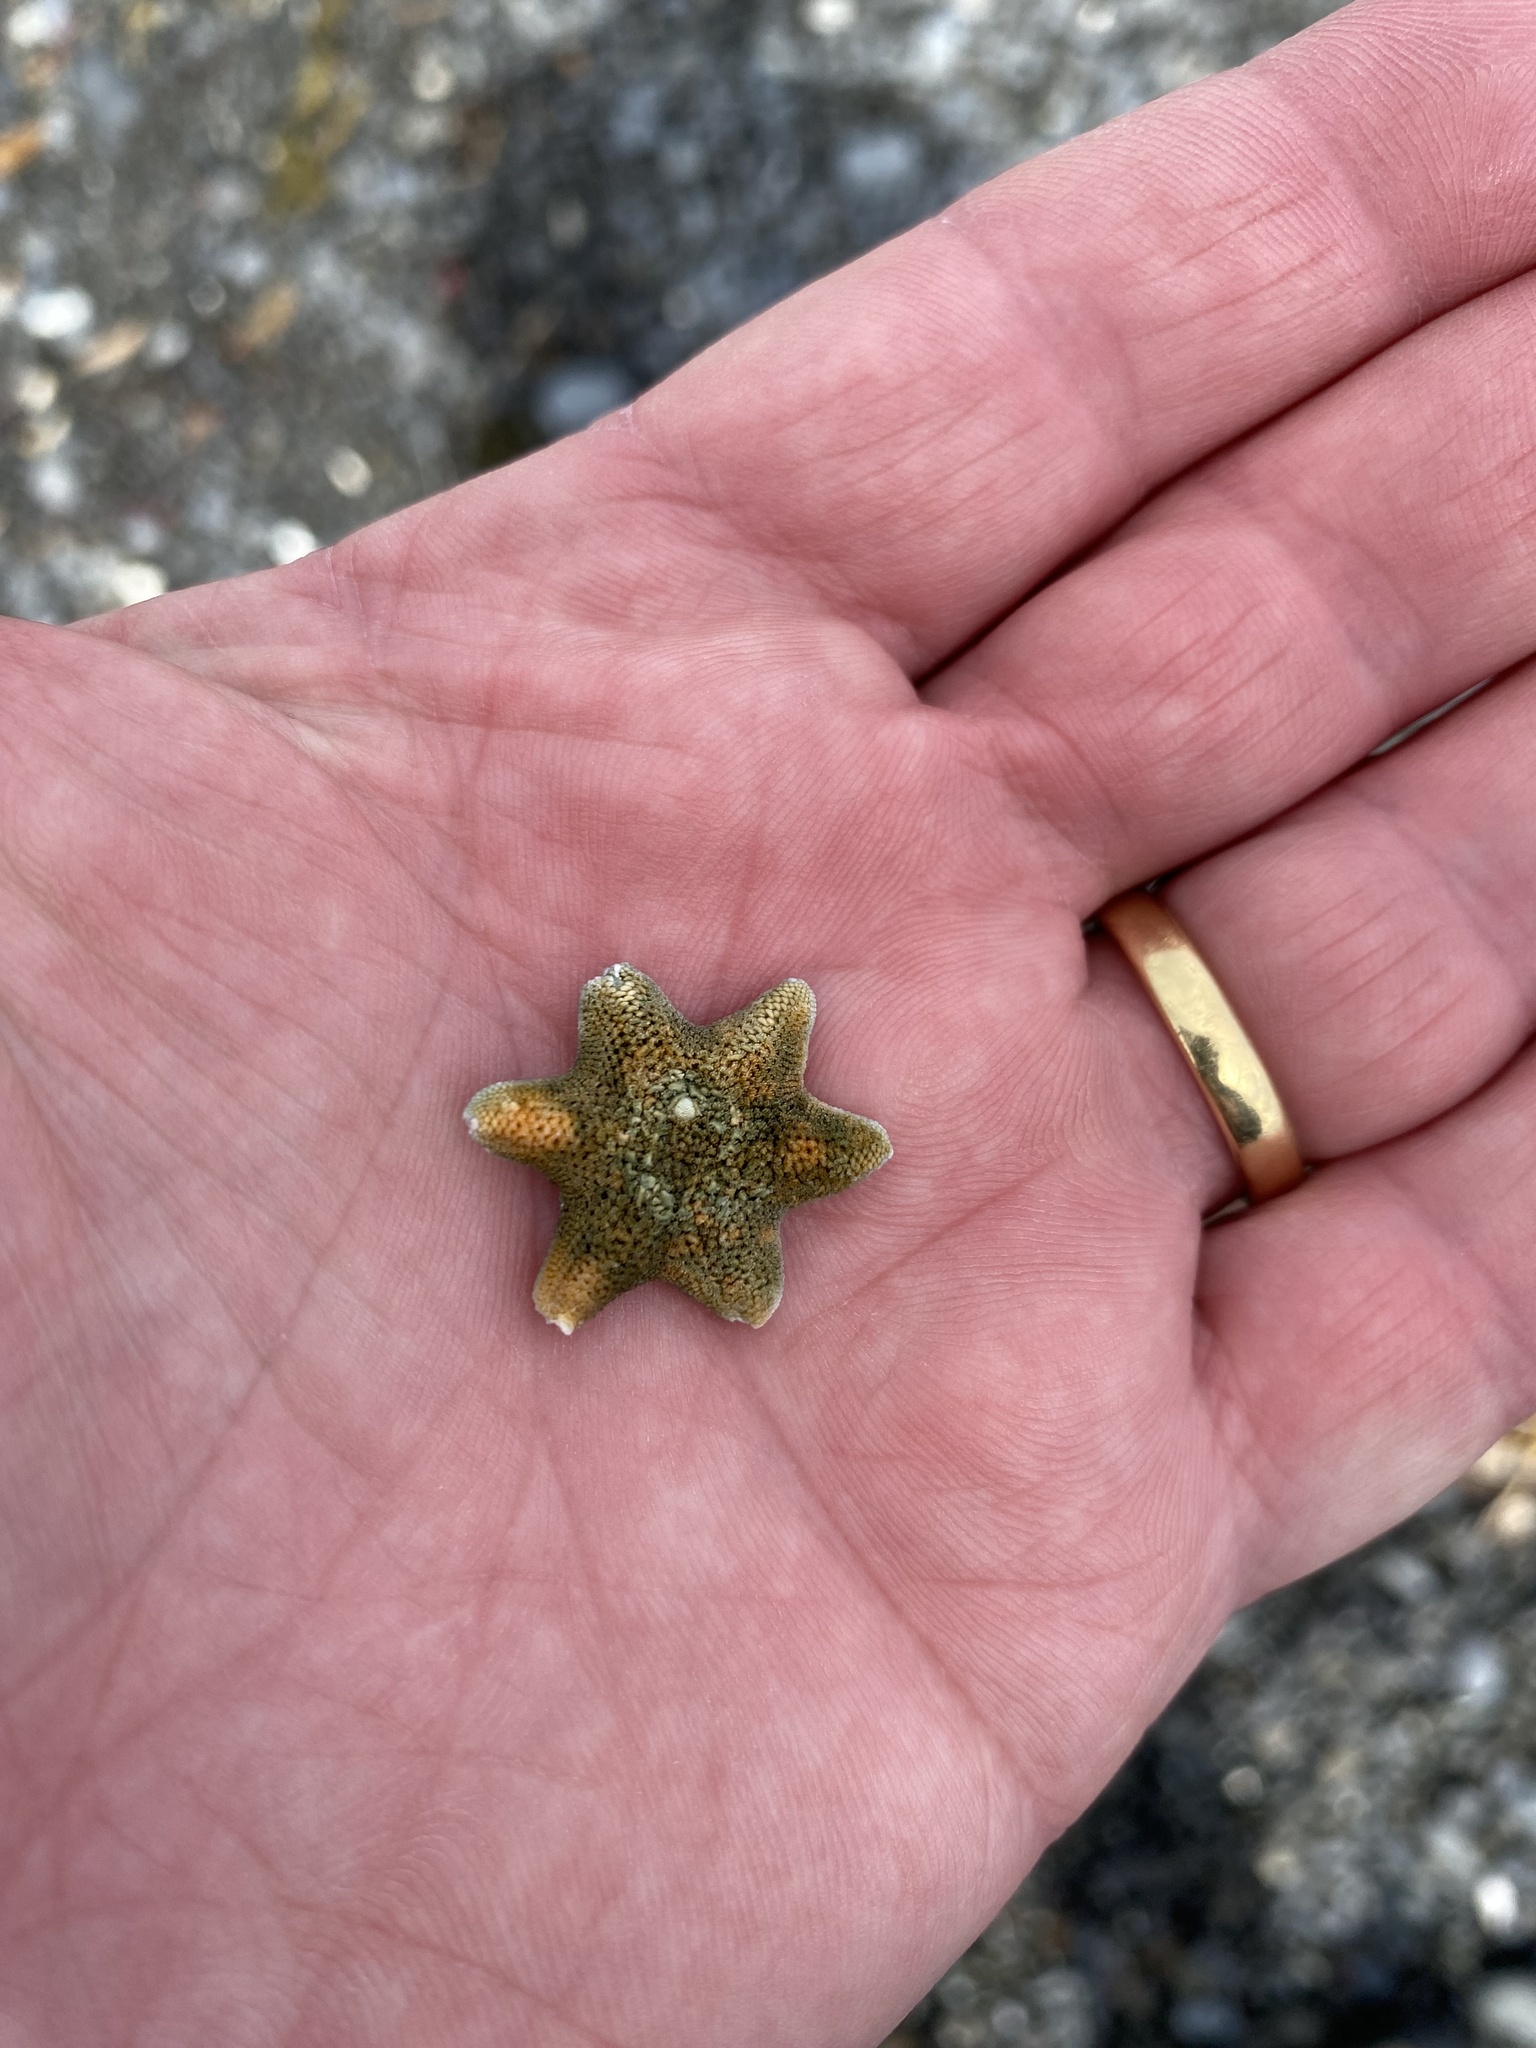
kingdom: Animalia
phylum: Echinodermata
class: Asteroidea
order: Valvatida
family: Asterinidae
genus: Patiriella
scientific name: Patiriella regularis
